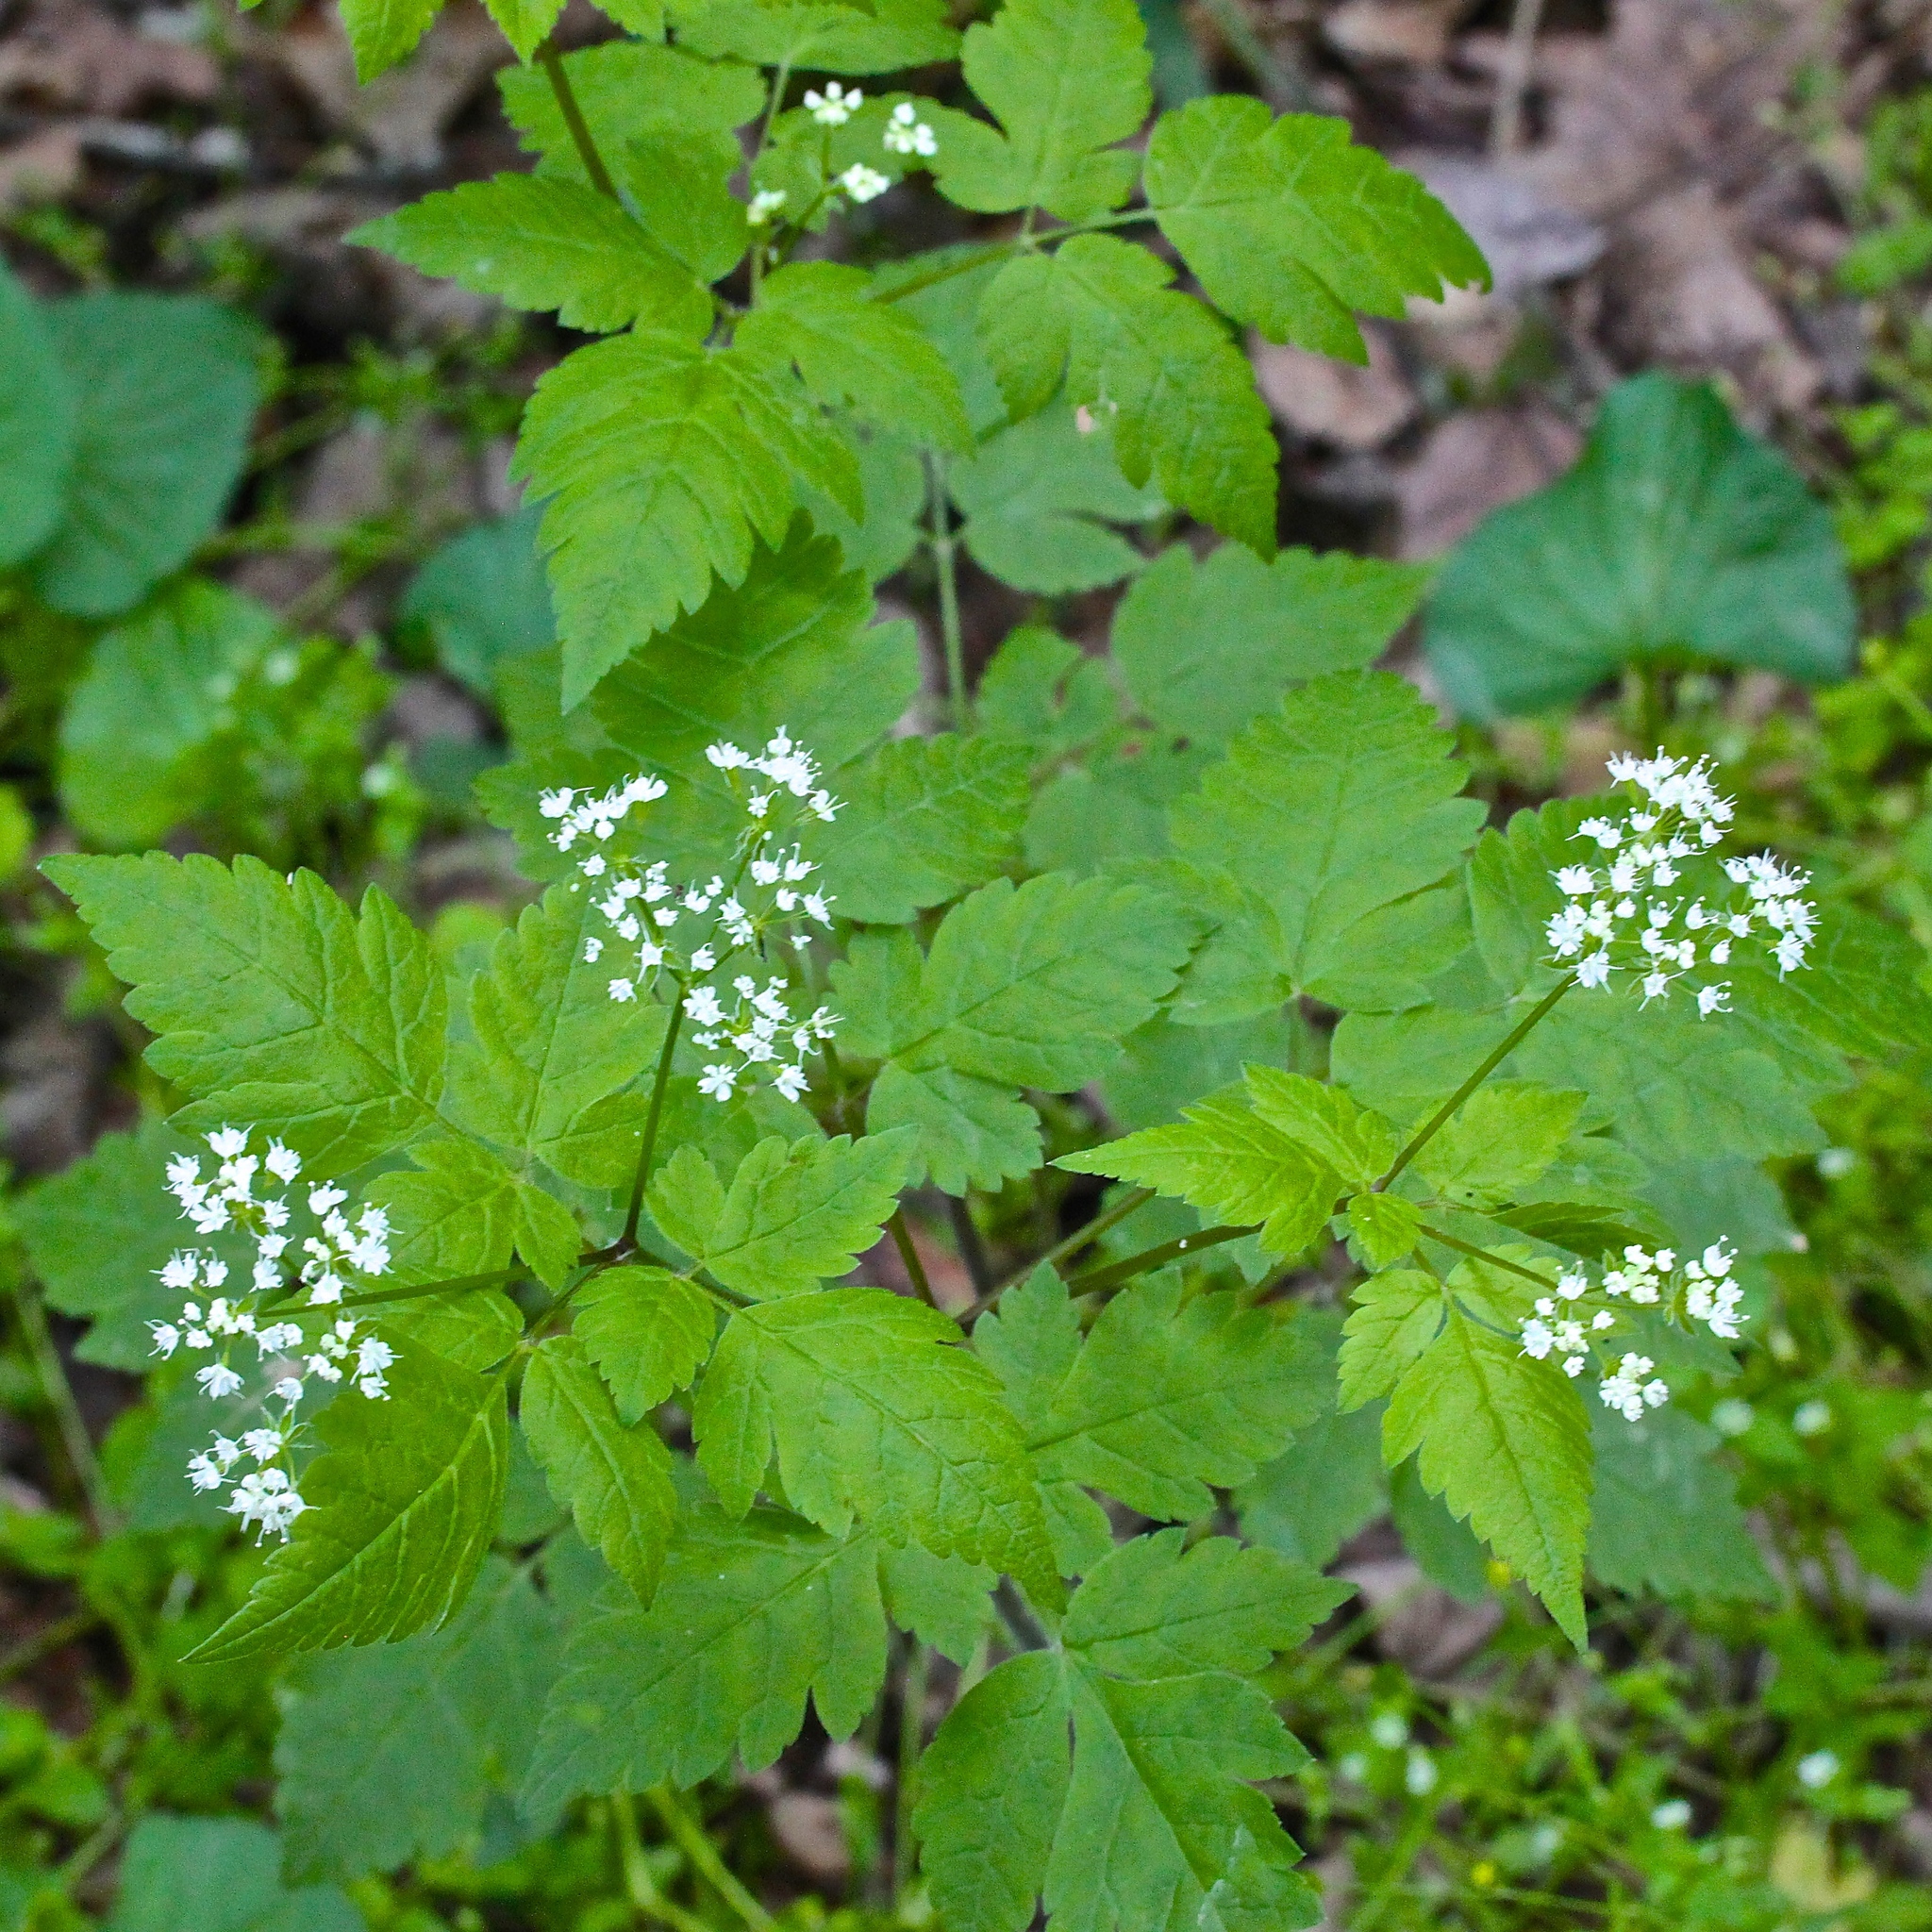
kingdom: Plantae
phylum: Tracheophyta
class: Magnoliopsida
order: Apiales
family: Apiaceae
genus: Osmorhiza
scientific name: Osmorhiza longistylis
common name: Smooth sweet cicely
